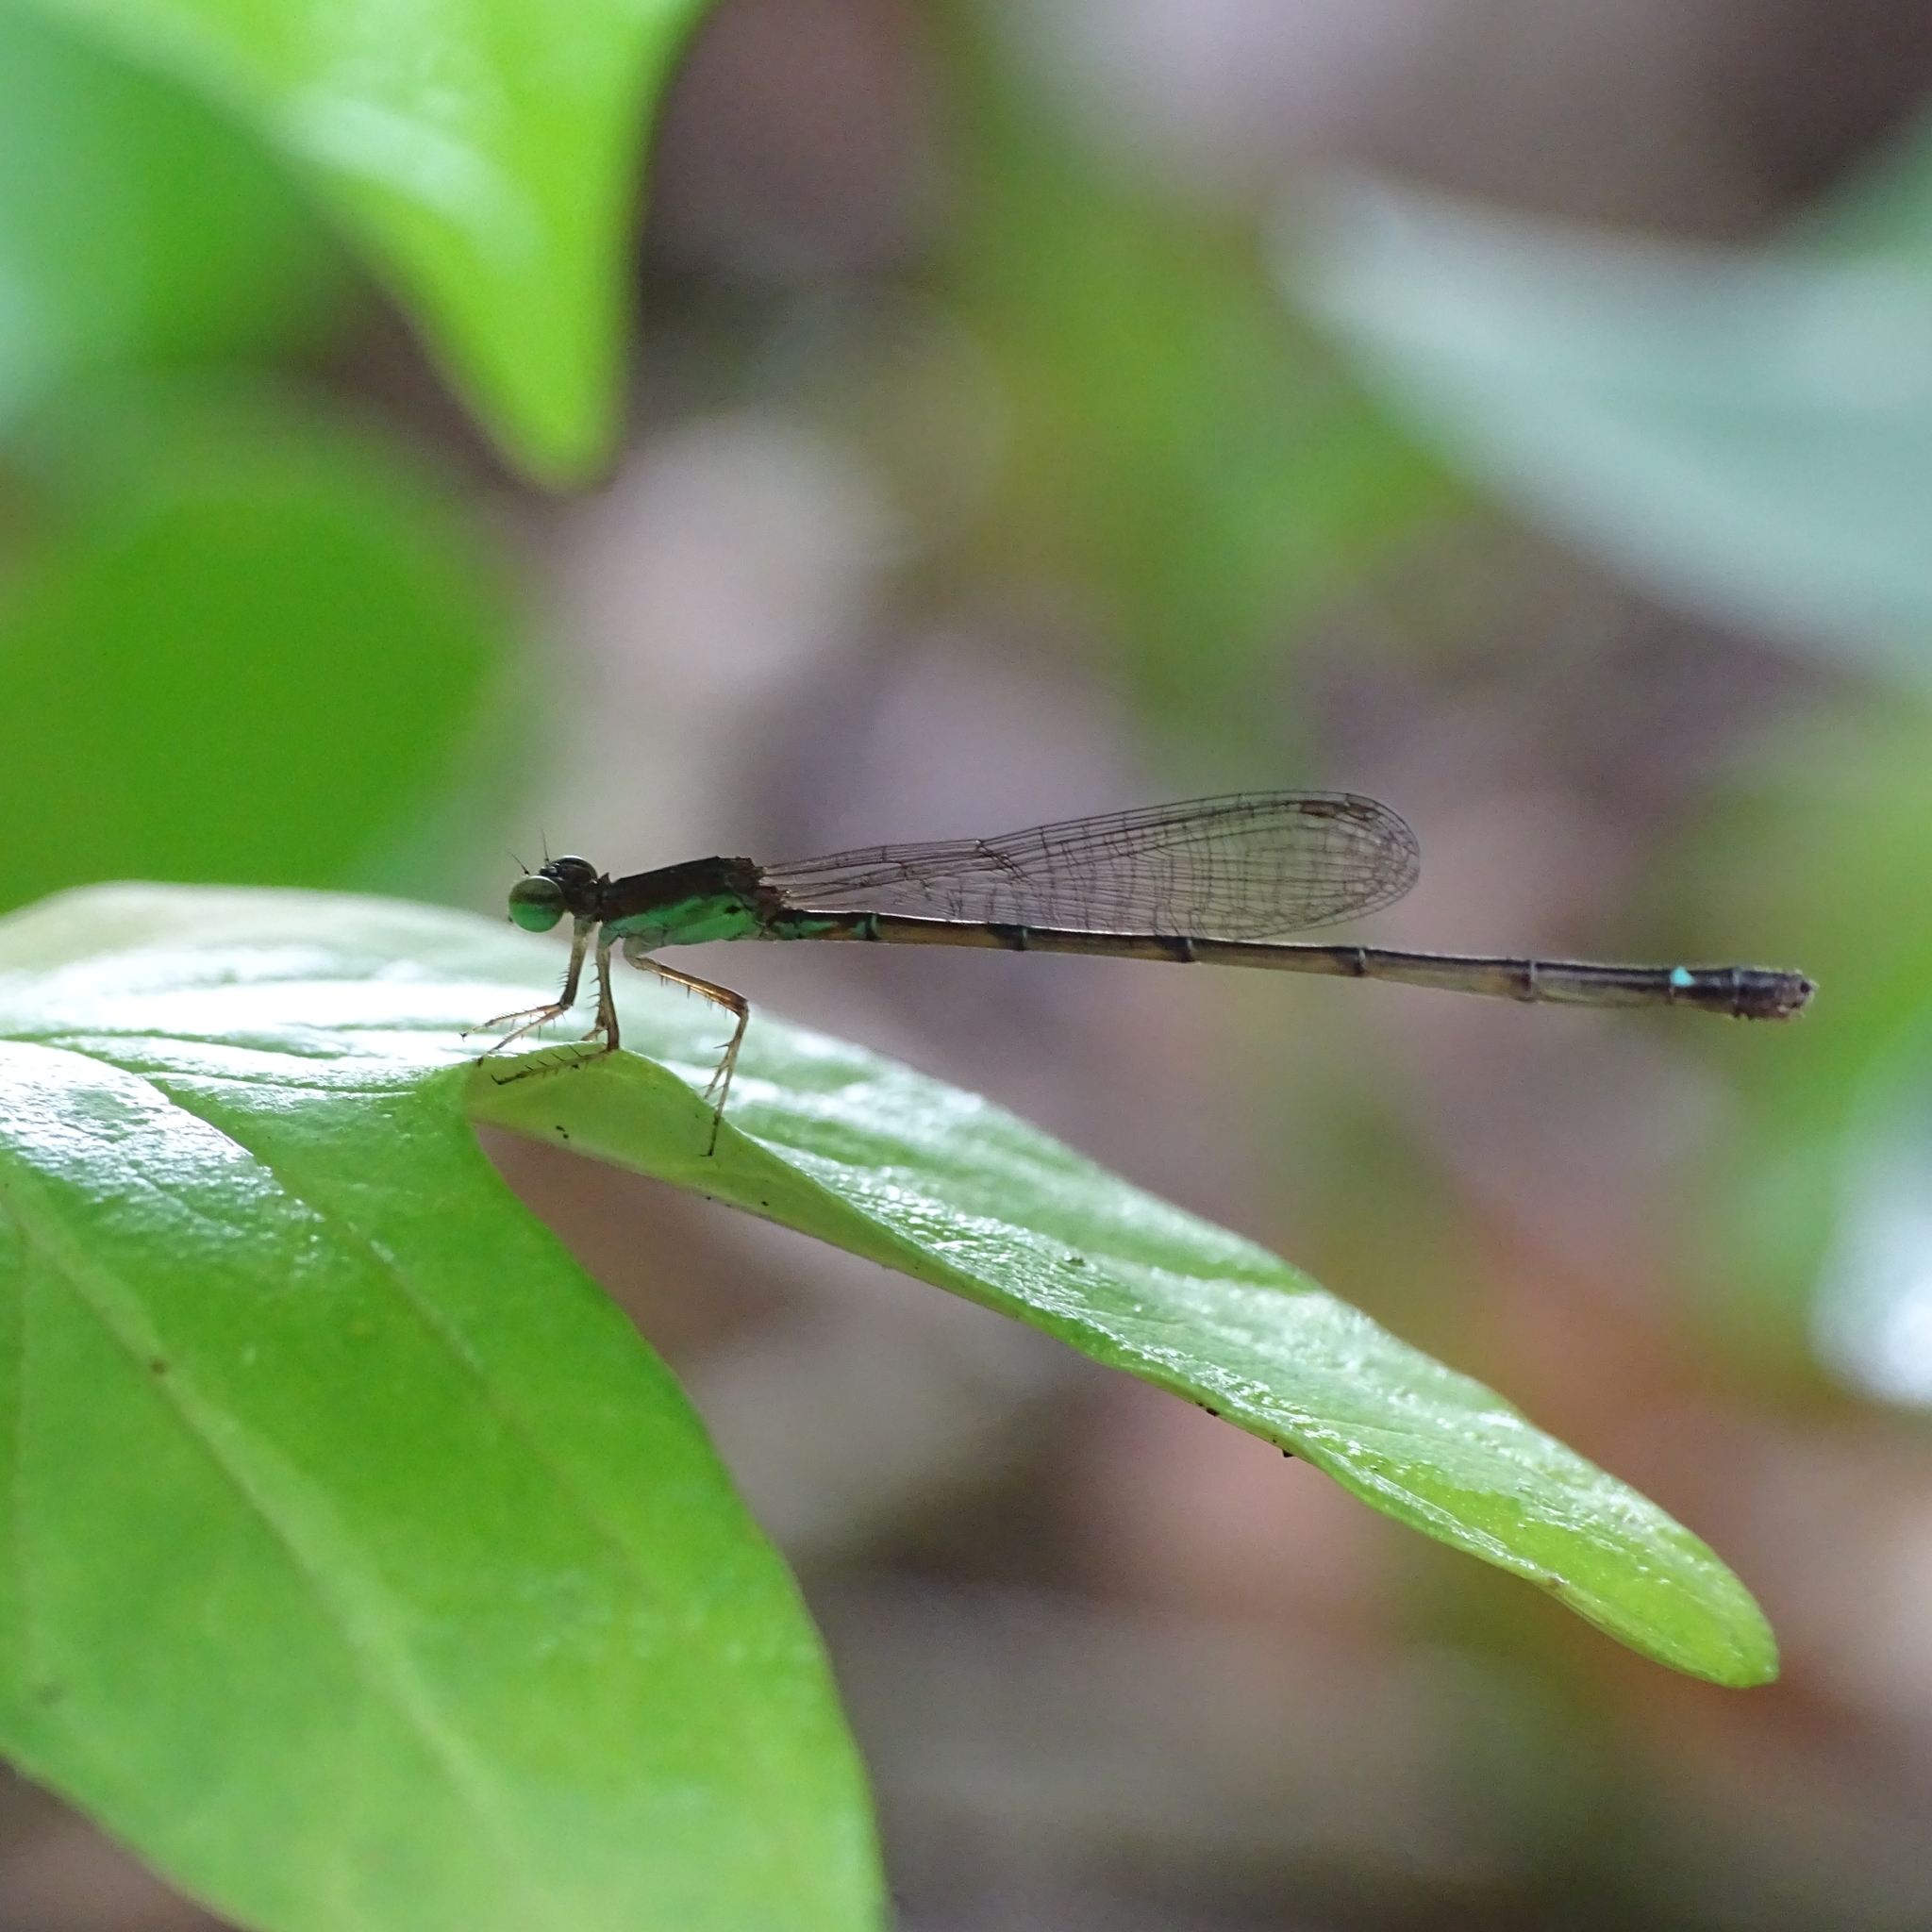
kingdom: Animalia
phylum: Arthropoda
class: Insecta
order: Odonata
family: Coenagrionidae
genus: Mortonagrion
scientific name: Mortonagrion varralli
